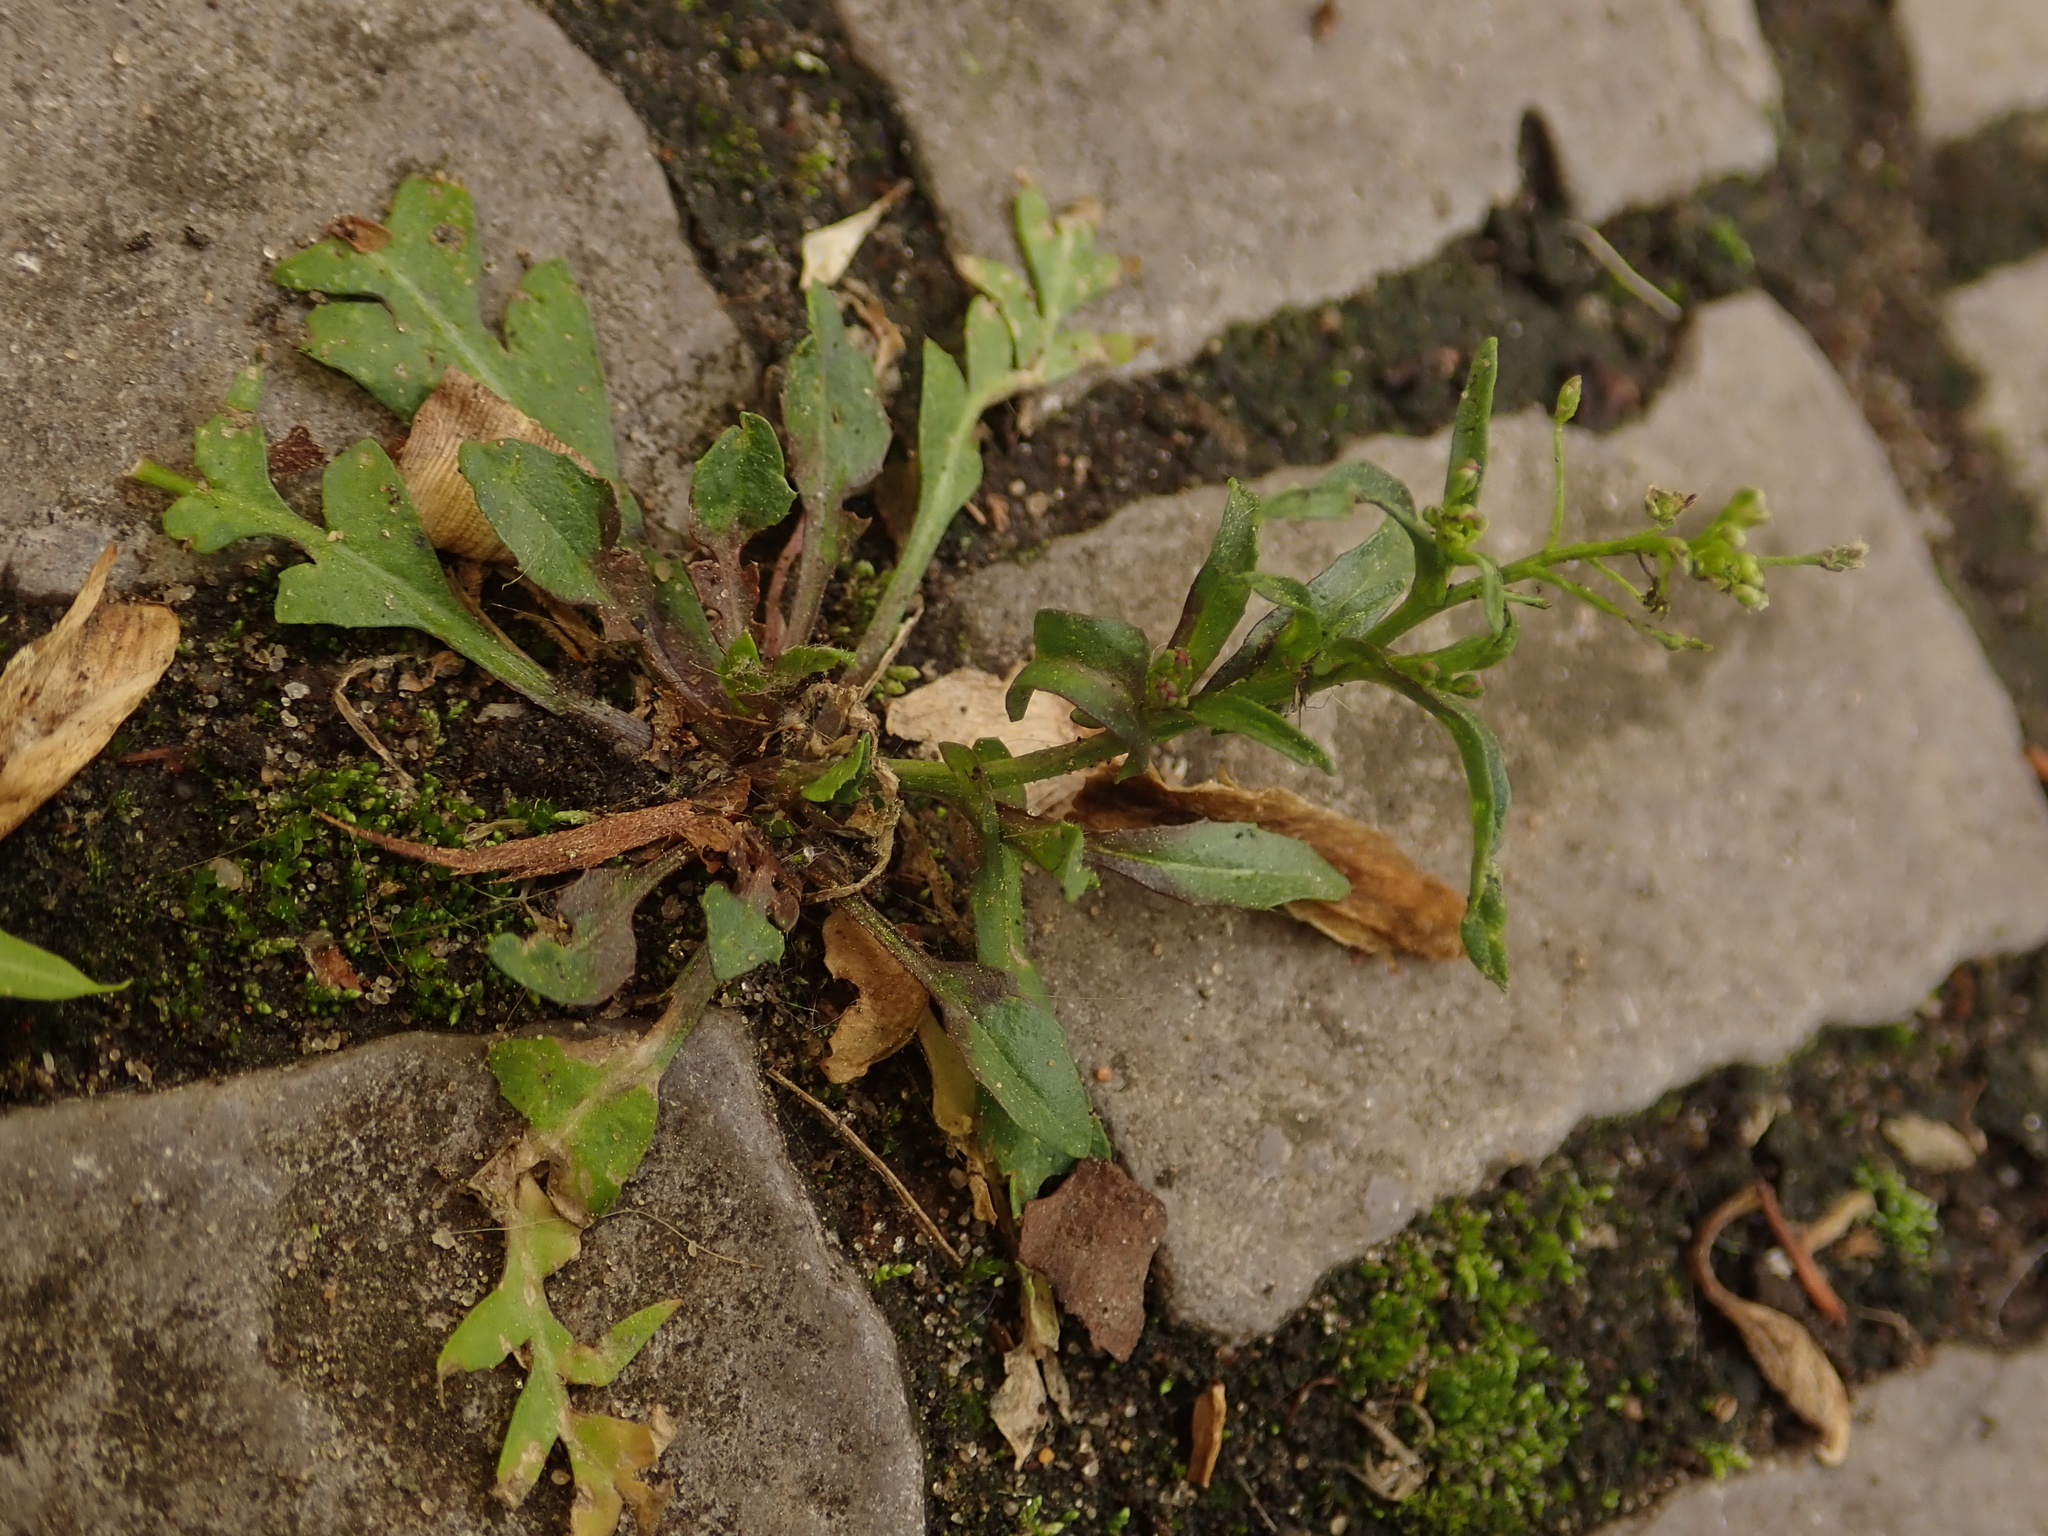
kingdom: Plantae
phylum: Tracheophyta
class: Magnoliopsida
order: Brassicales
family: Brassicaceae
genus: Capsella
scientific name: Capsella bursa-pastoris
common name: Shepherd's purse
